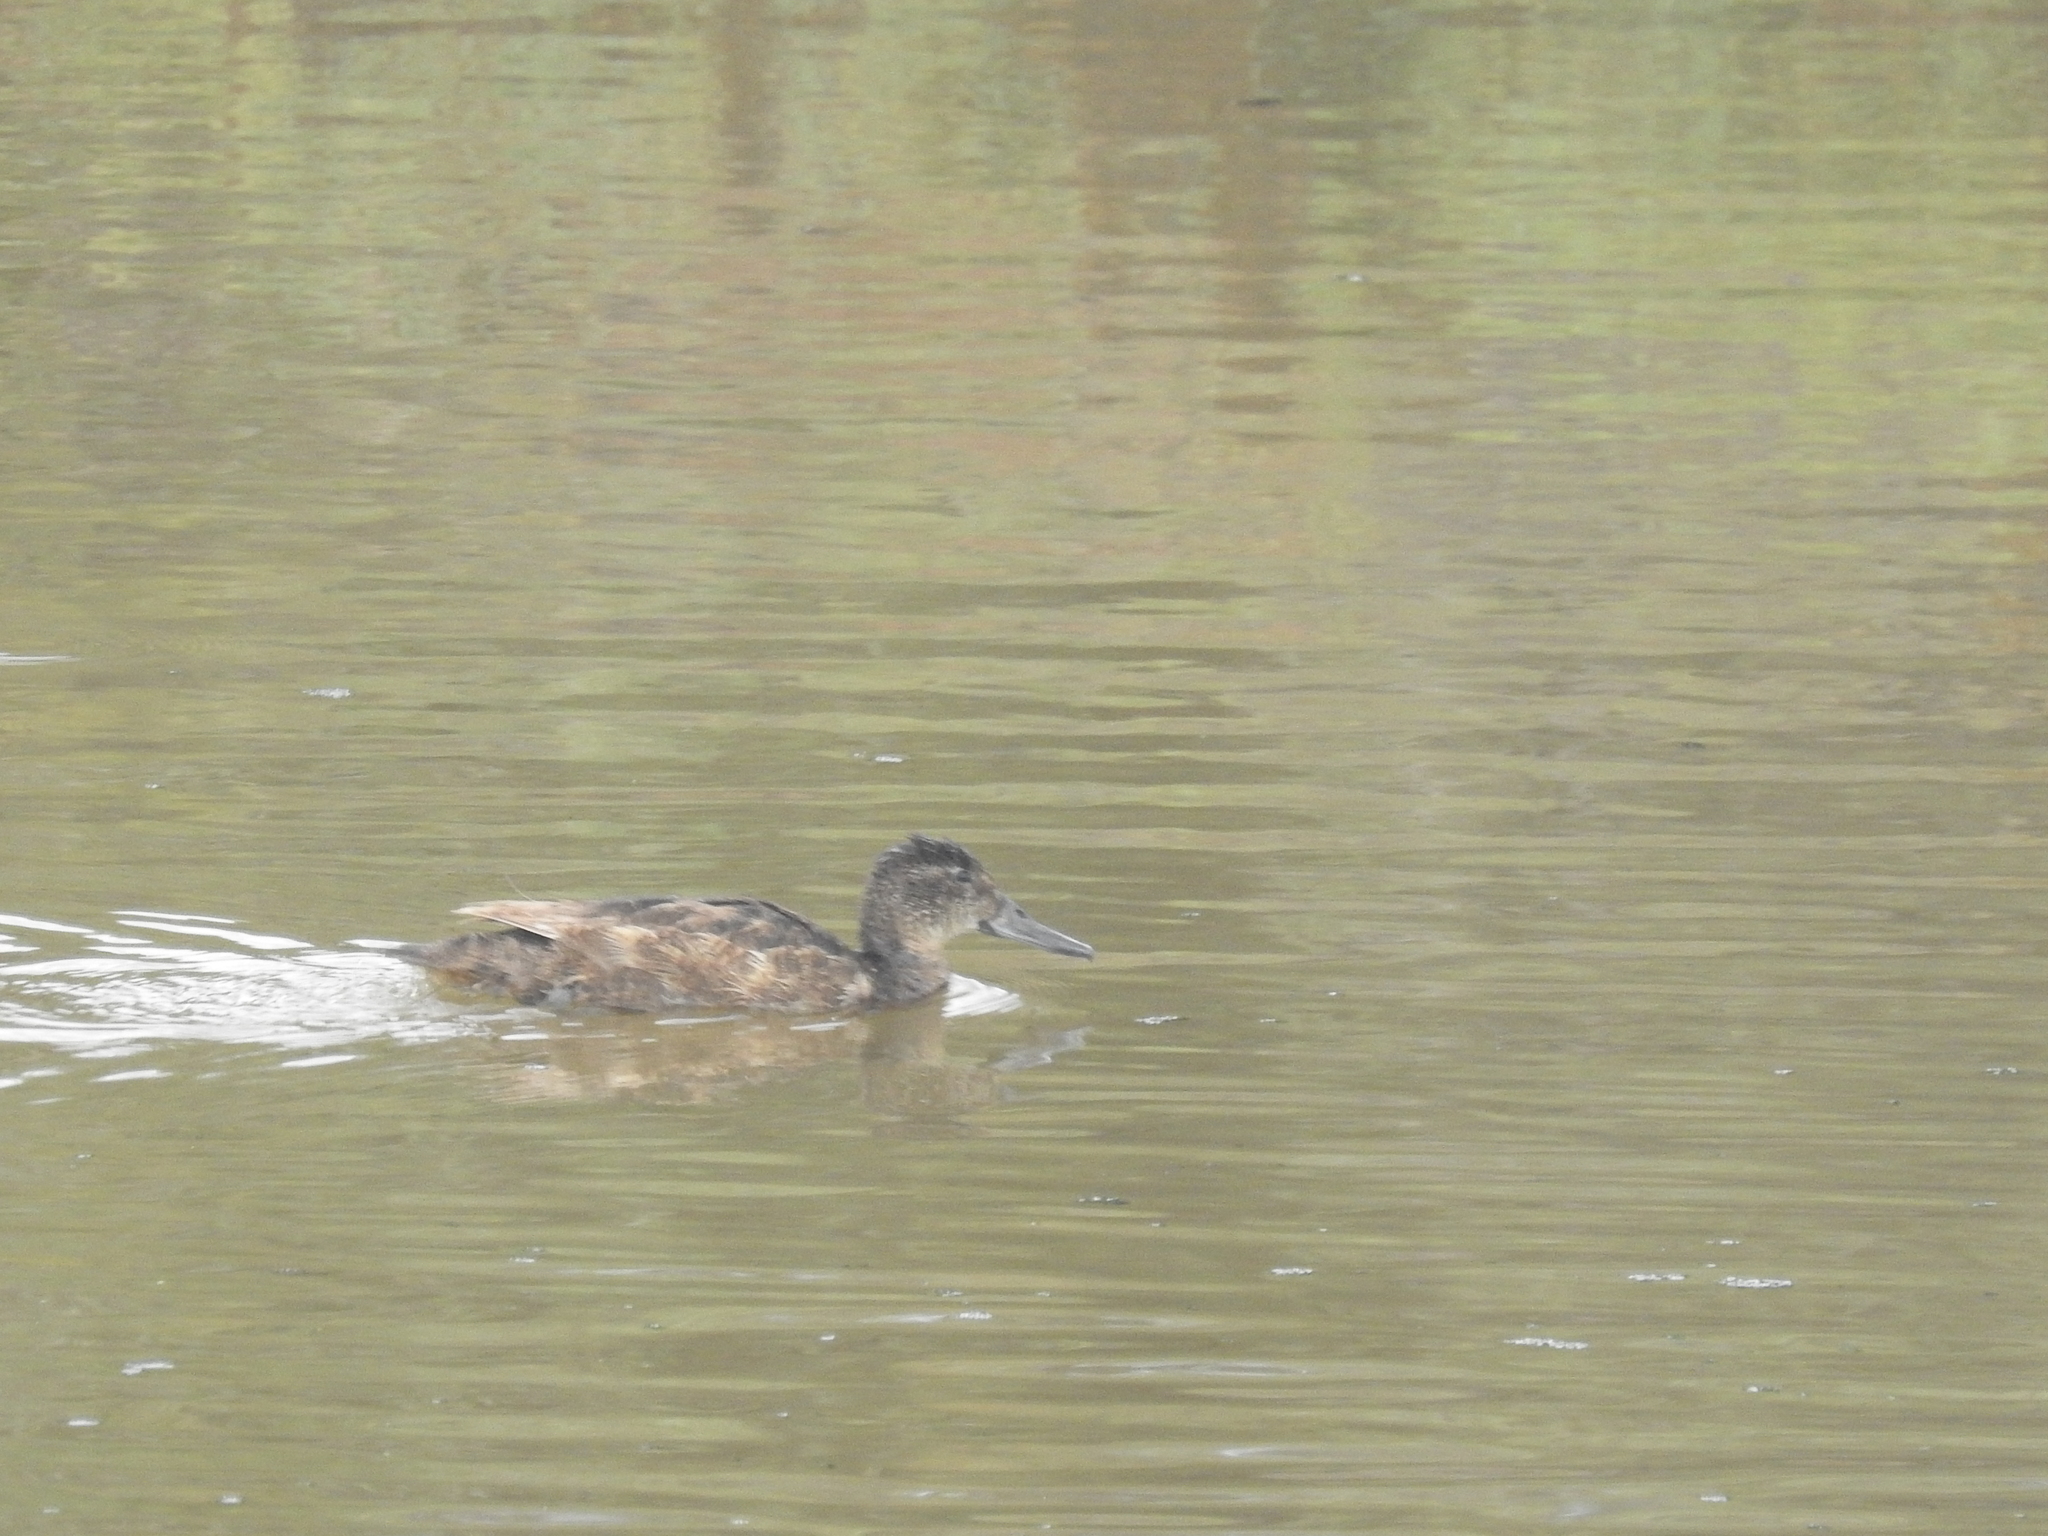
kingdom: Animalia
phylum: Chordata
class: Aves
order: Anseriformes
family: Anatidae
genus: Heteronetta
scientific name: Heteronetta atricapilla
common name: Black-headed duck
